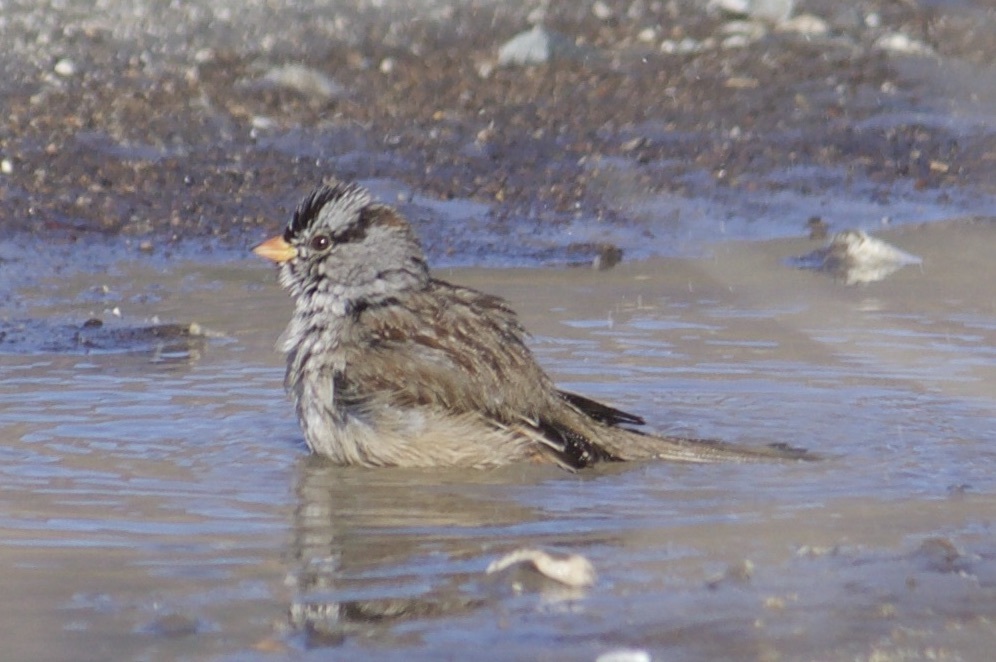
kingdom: Animalia
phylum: Chordata
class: Aves
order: Passeriformes
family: Passerellidae
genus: Zonotrichia
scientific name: Zonotrichia leucophrys
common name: White-crowned sparrow
